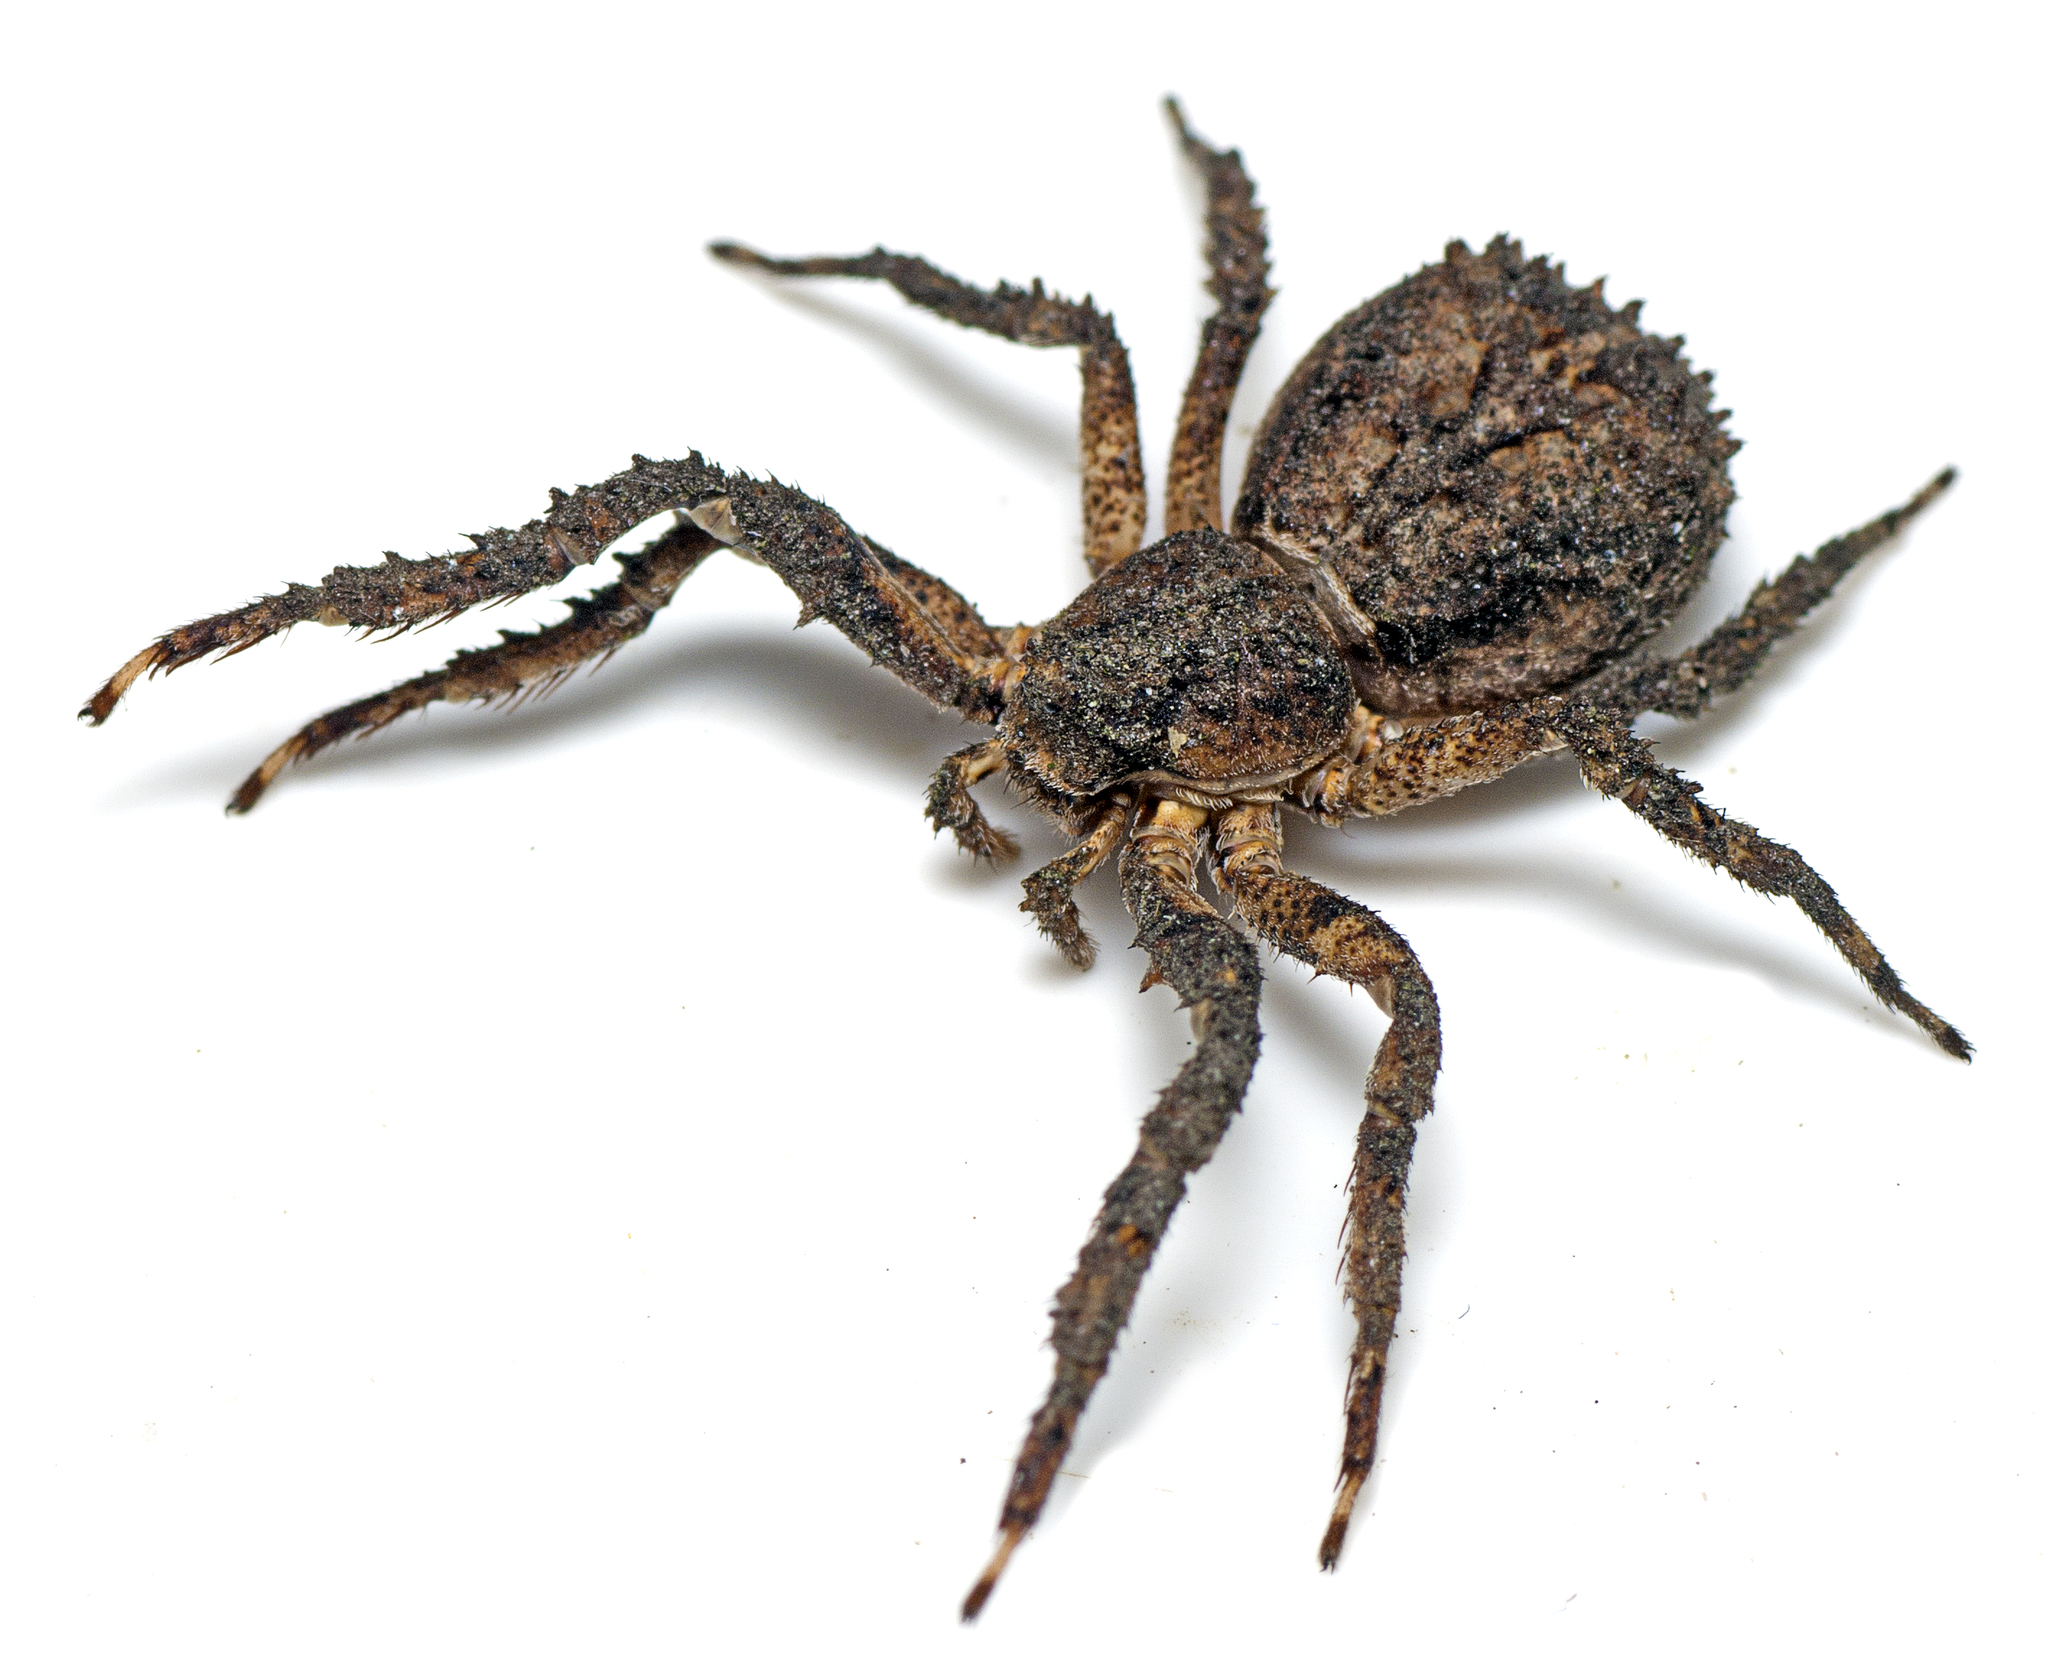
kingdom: Animalia
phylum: Arthropoda
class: Arachnida
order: Araneae
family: Thomisidae
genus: Stephanopis
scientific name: Stephanopis altifrons
